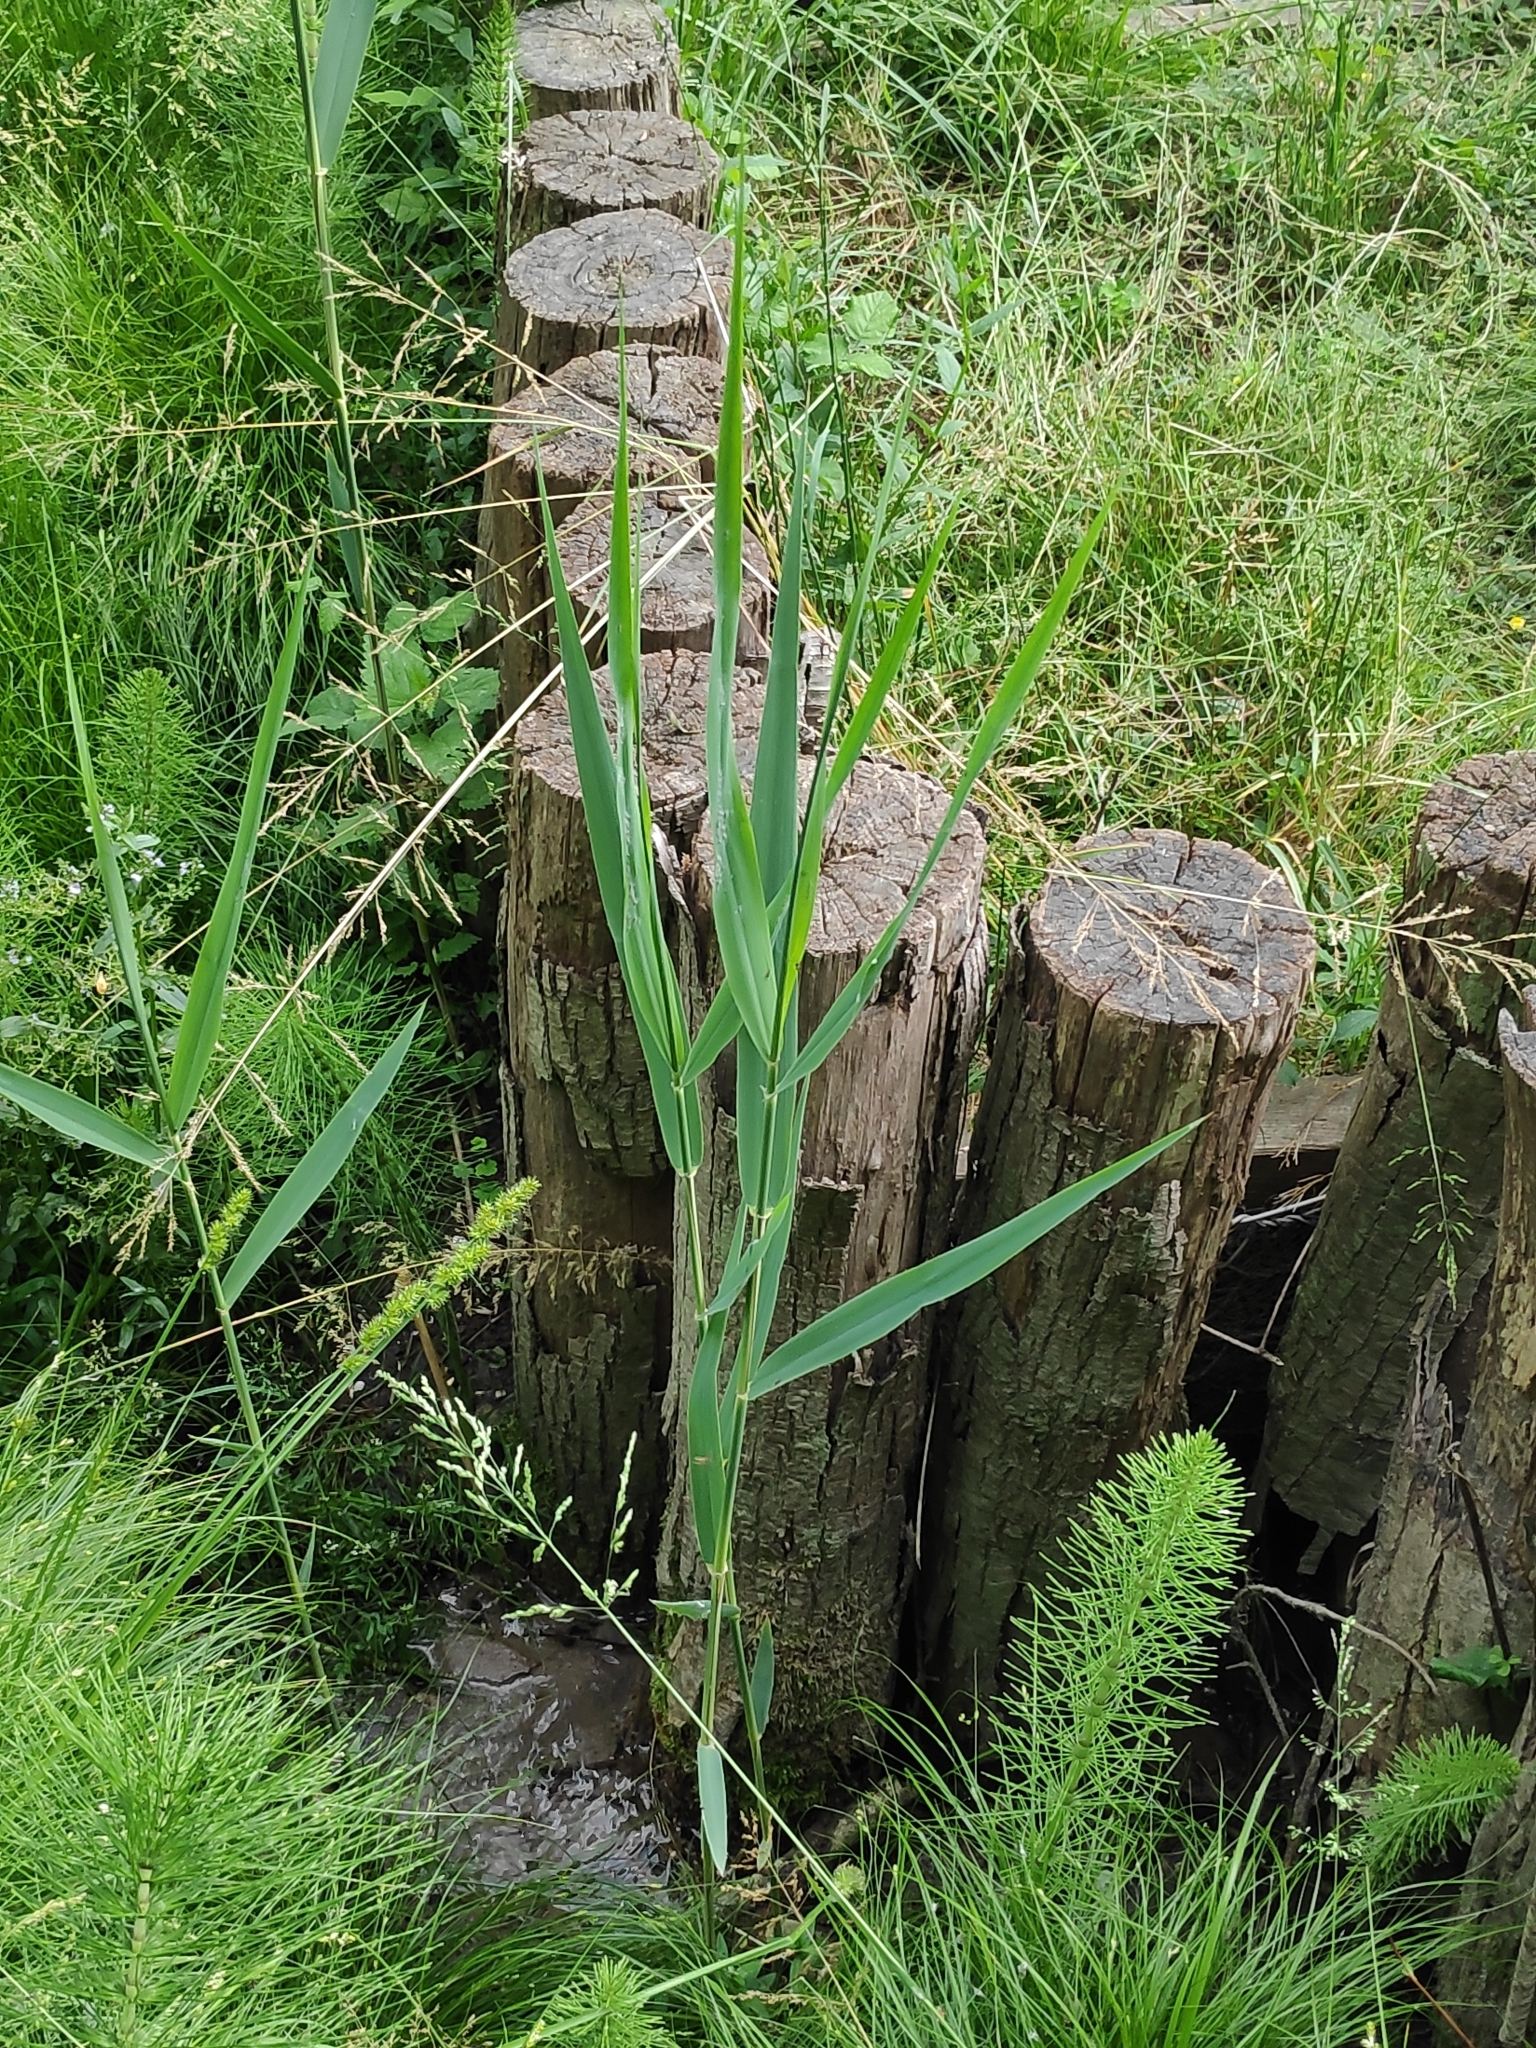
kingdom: Plantae
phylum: Tracheophyta
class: Liliopsida
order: Poales
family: Poaceae
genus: Phragmites
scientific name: Phragmites australis
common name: Common reed
